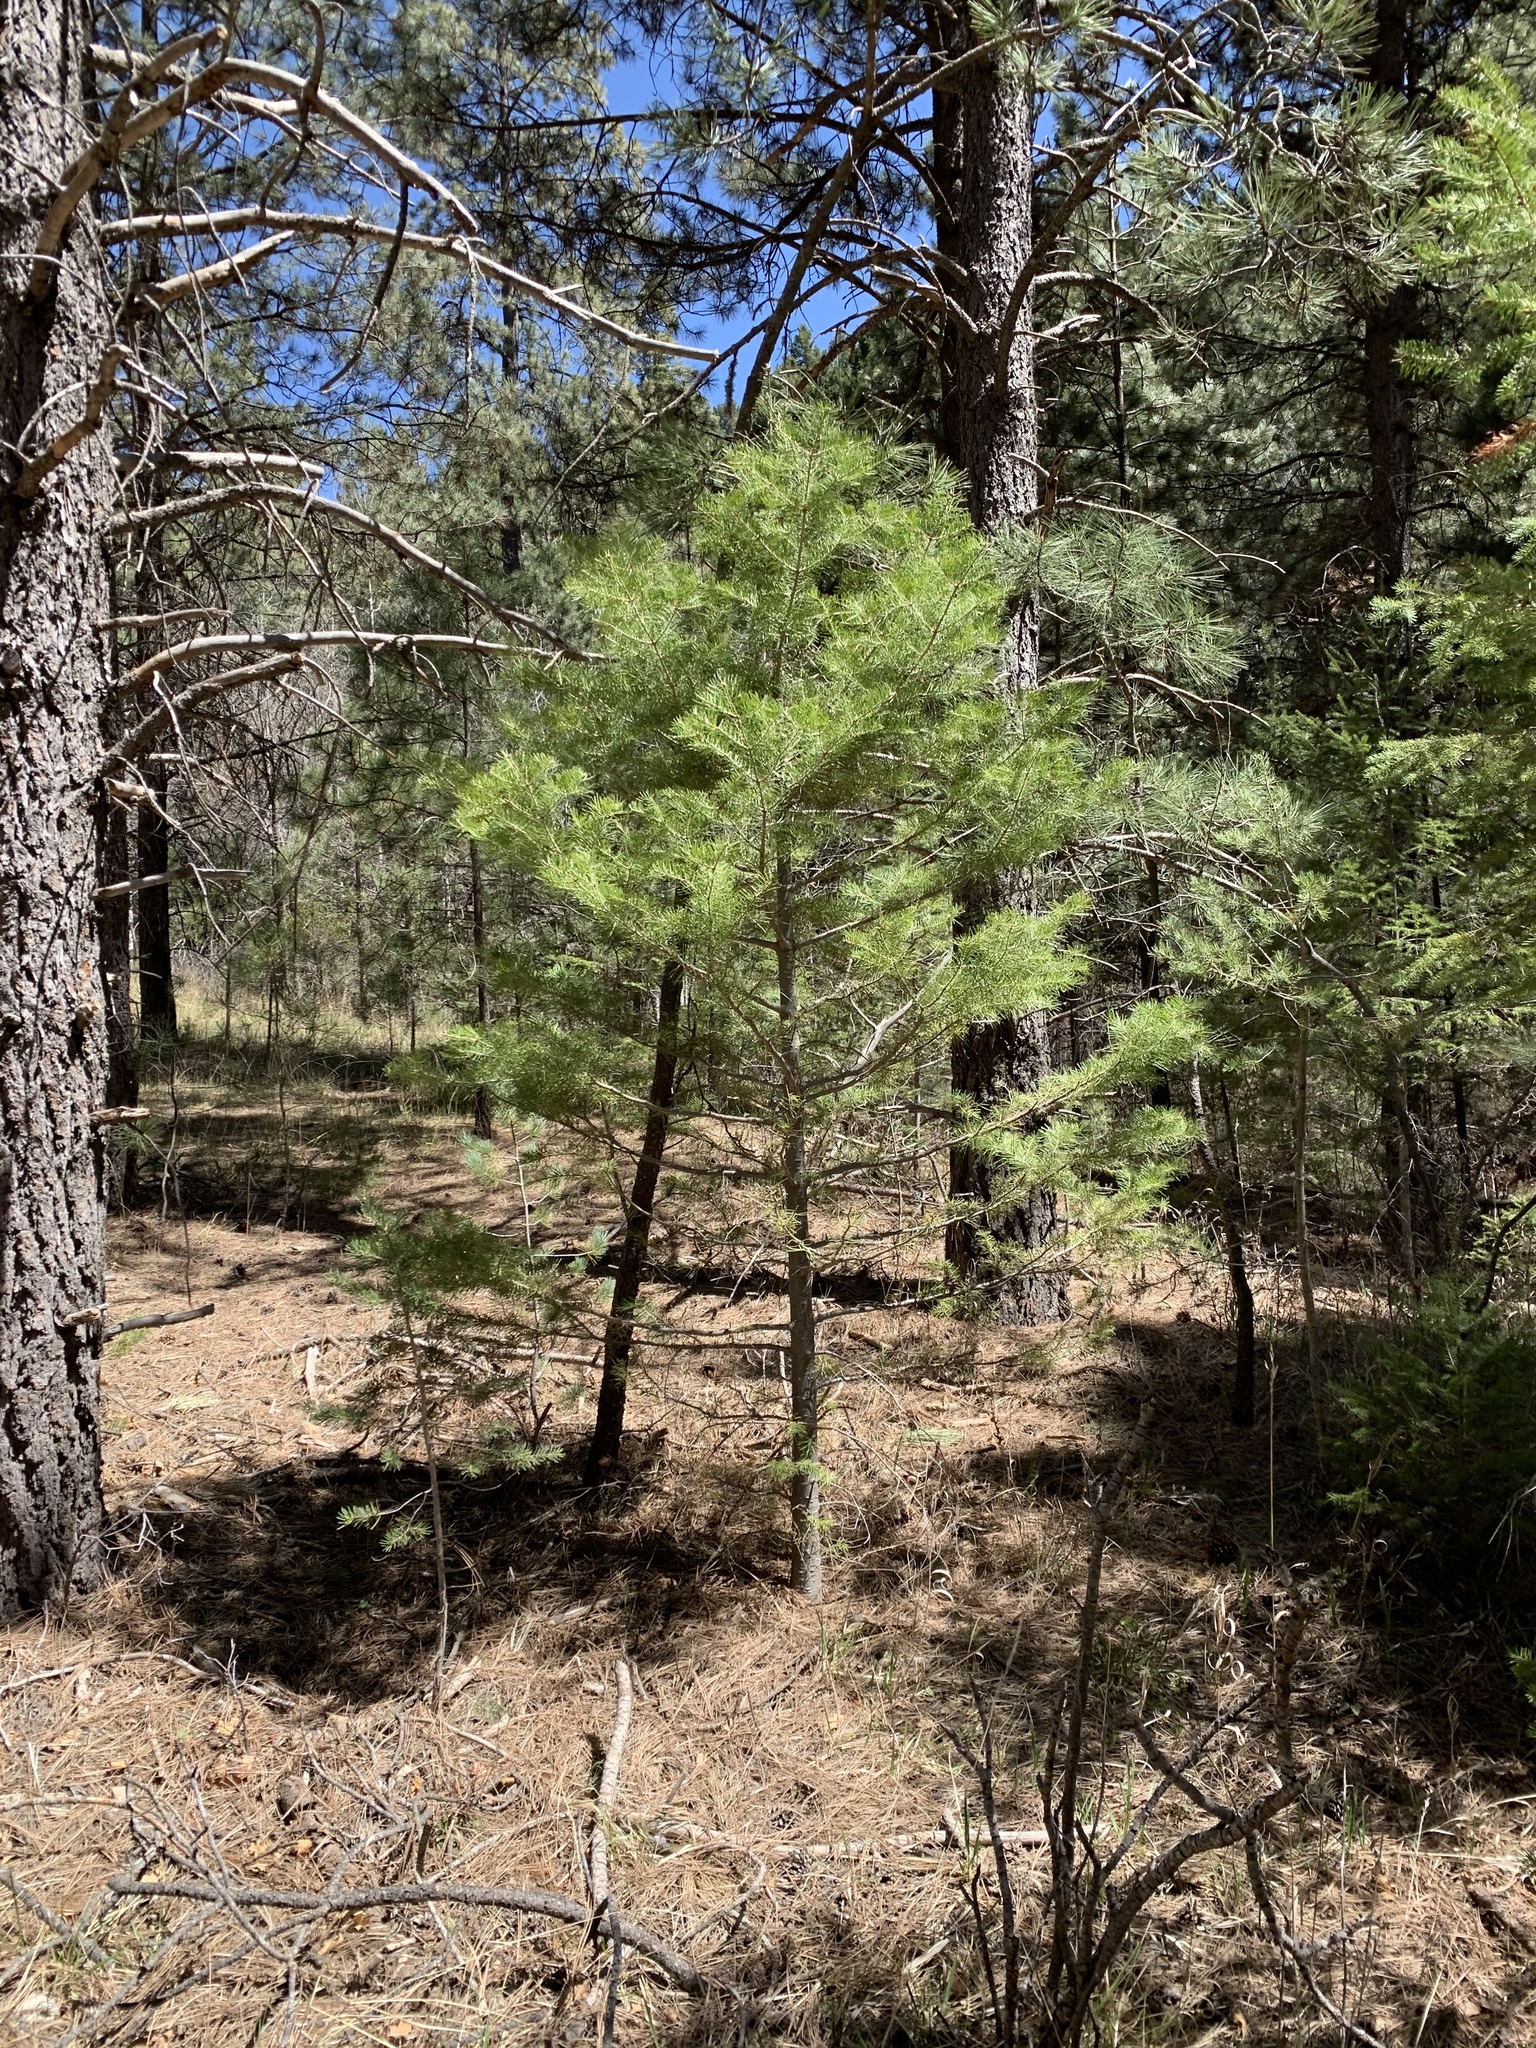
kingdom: Plantae
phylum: Tracheophyta
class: Pinopsida
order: Pinales
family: Pinaceae
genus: Abies
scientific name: Abies concolor
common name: Colorado fir
